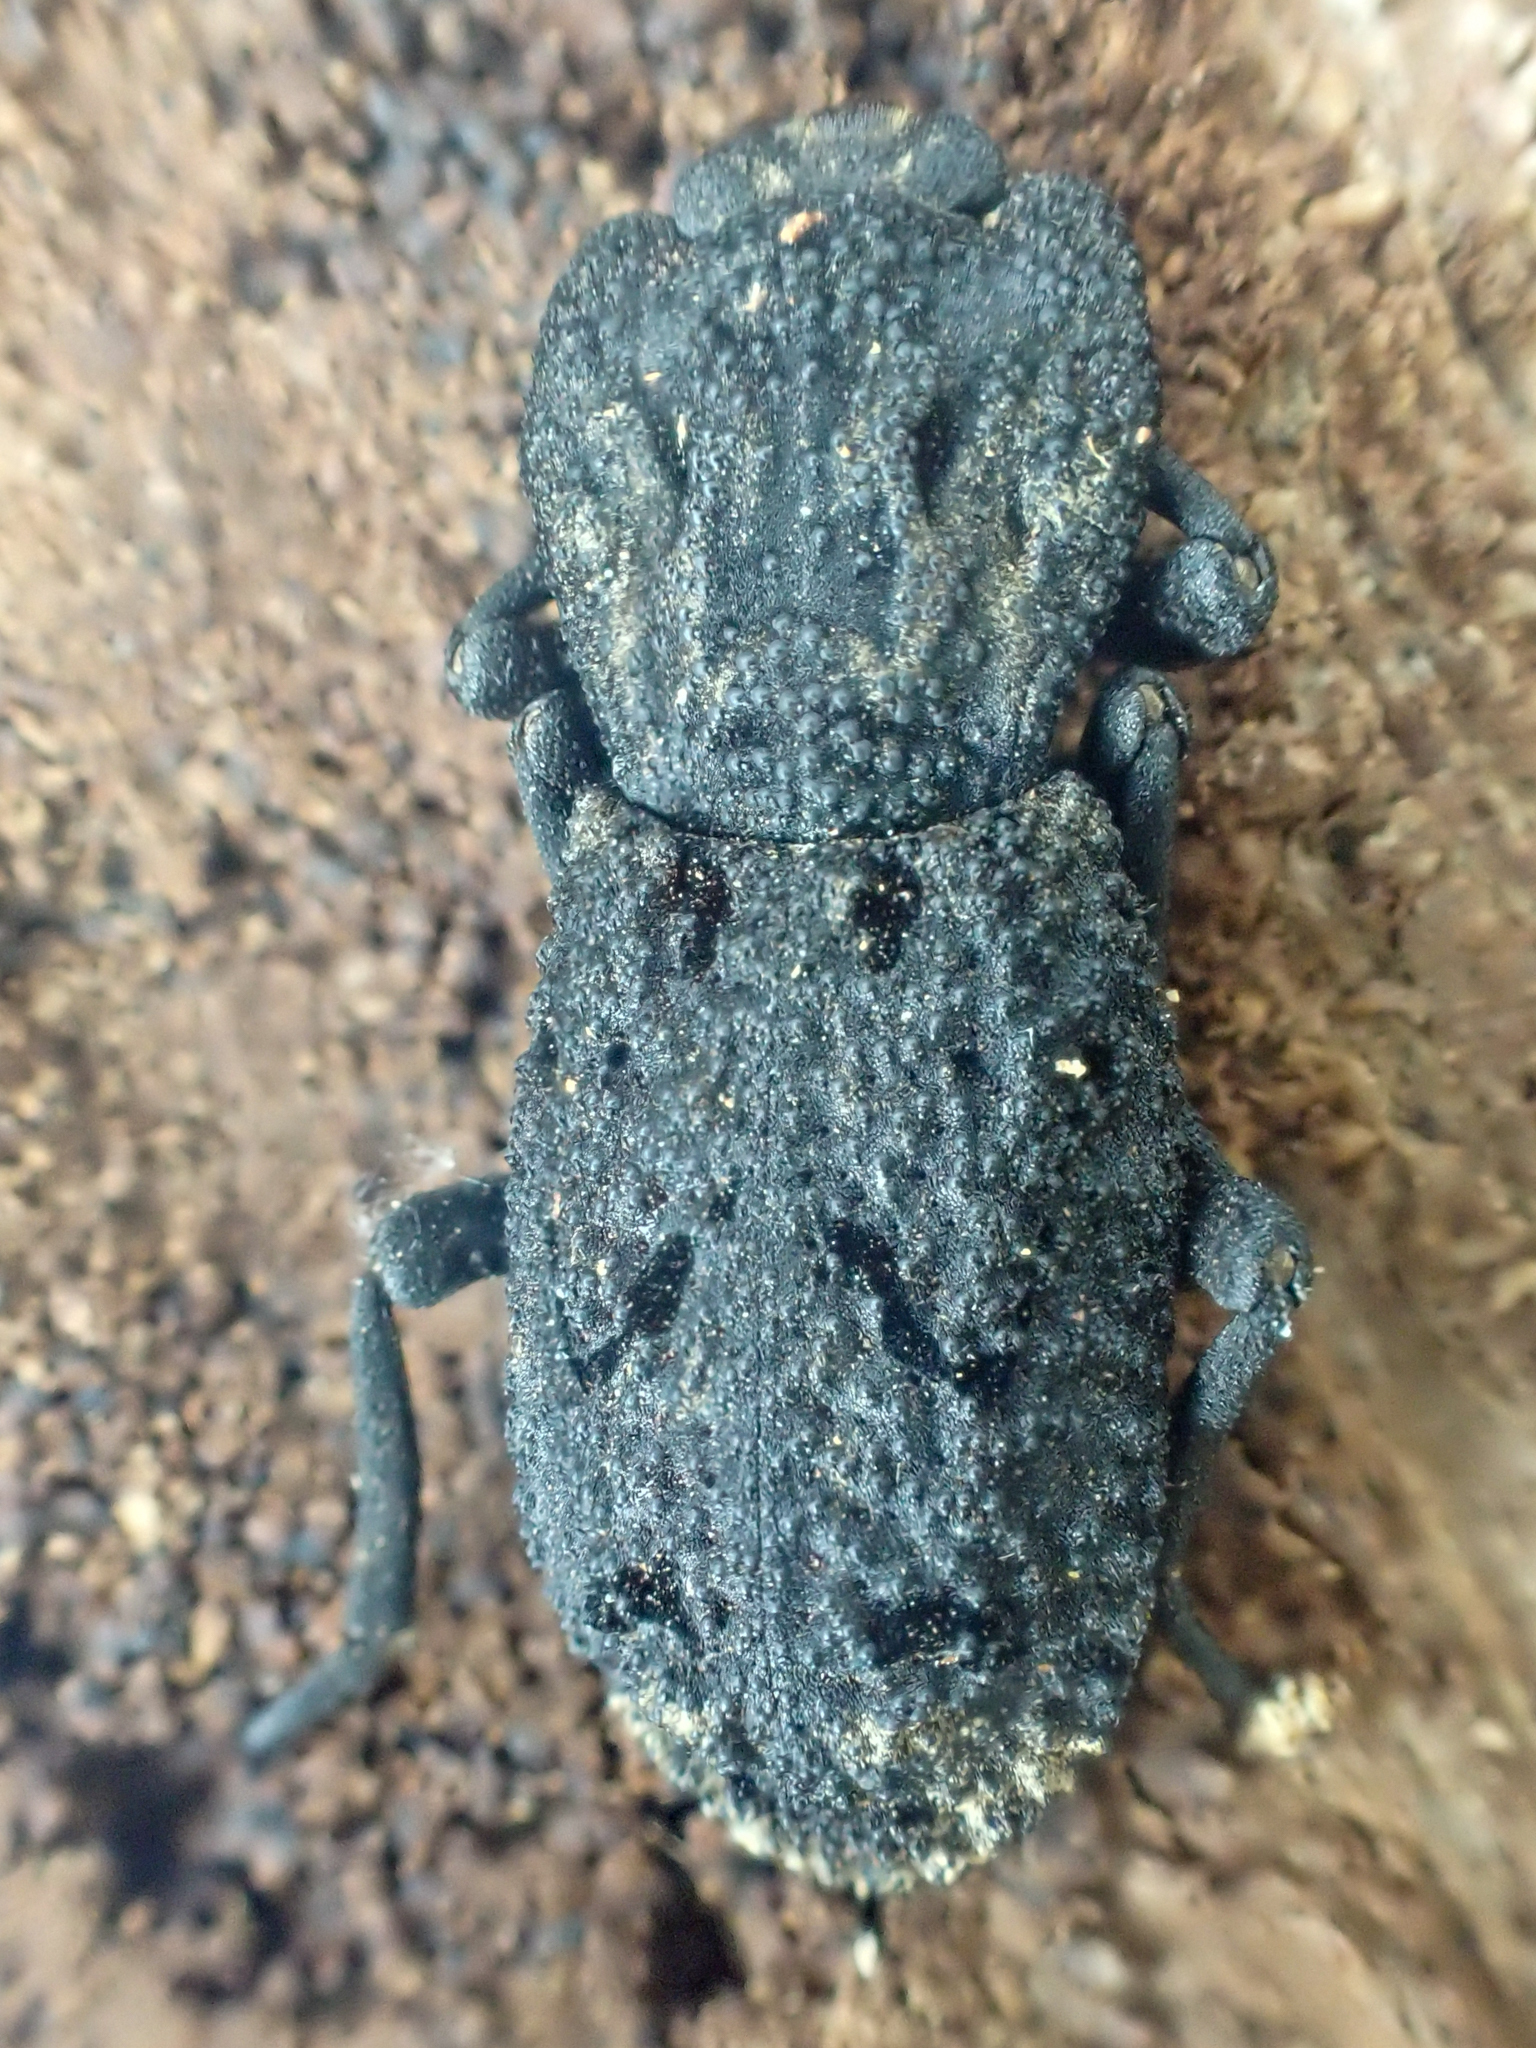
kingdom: Animalia
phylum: Arthropoda
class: Insecta
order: Coleoptera
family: Zopheridae
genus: Phloeodes
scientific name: Phloeodes diabolicus
